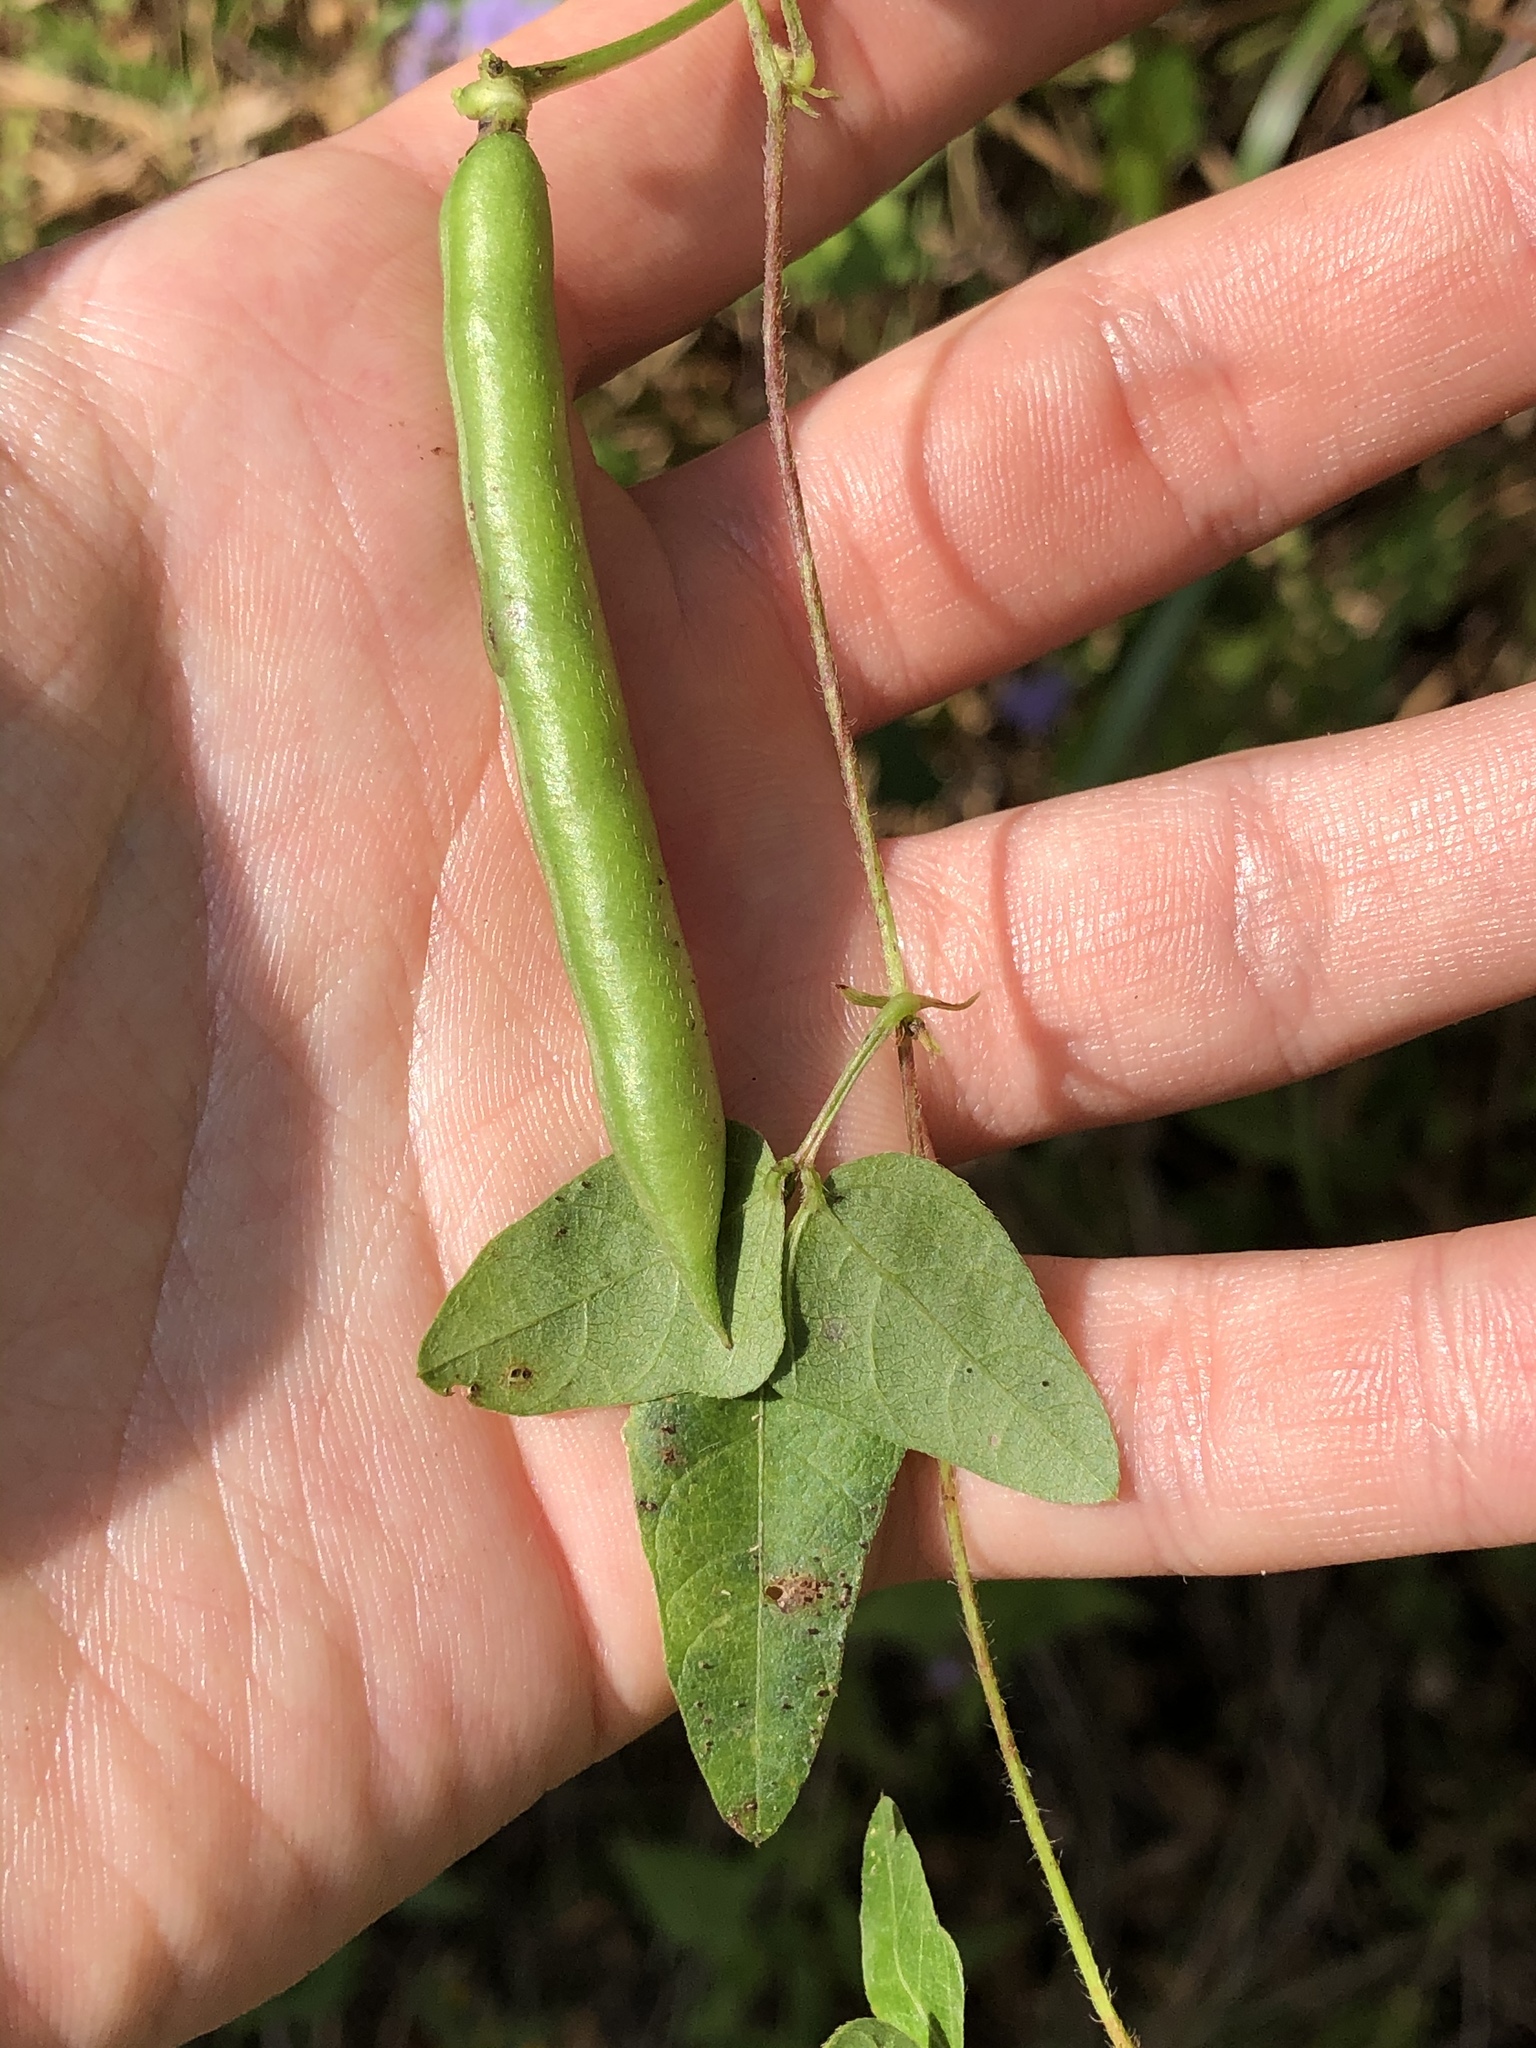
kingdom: Plantae
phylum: Tracheophyta
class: Magnoliopsida
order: Fabales
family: Fabaceae
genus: Strophostyles
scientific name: Strophostyles helvola
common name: Trailing wild bean
